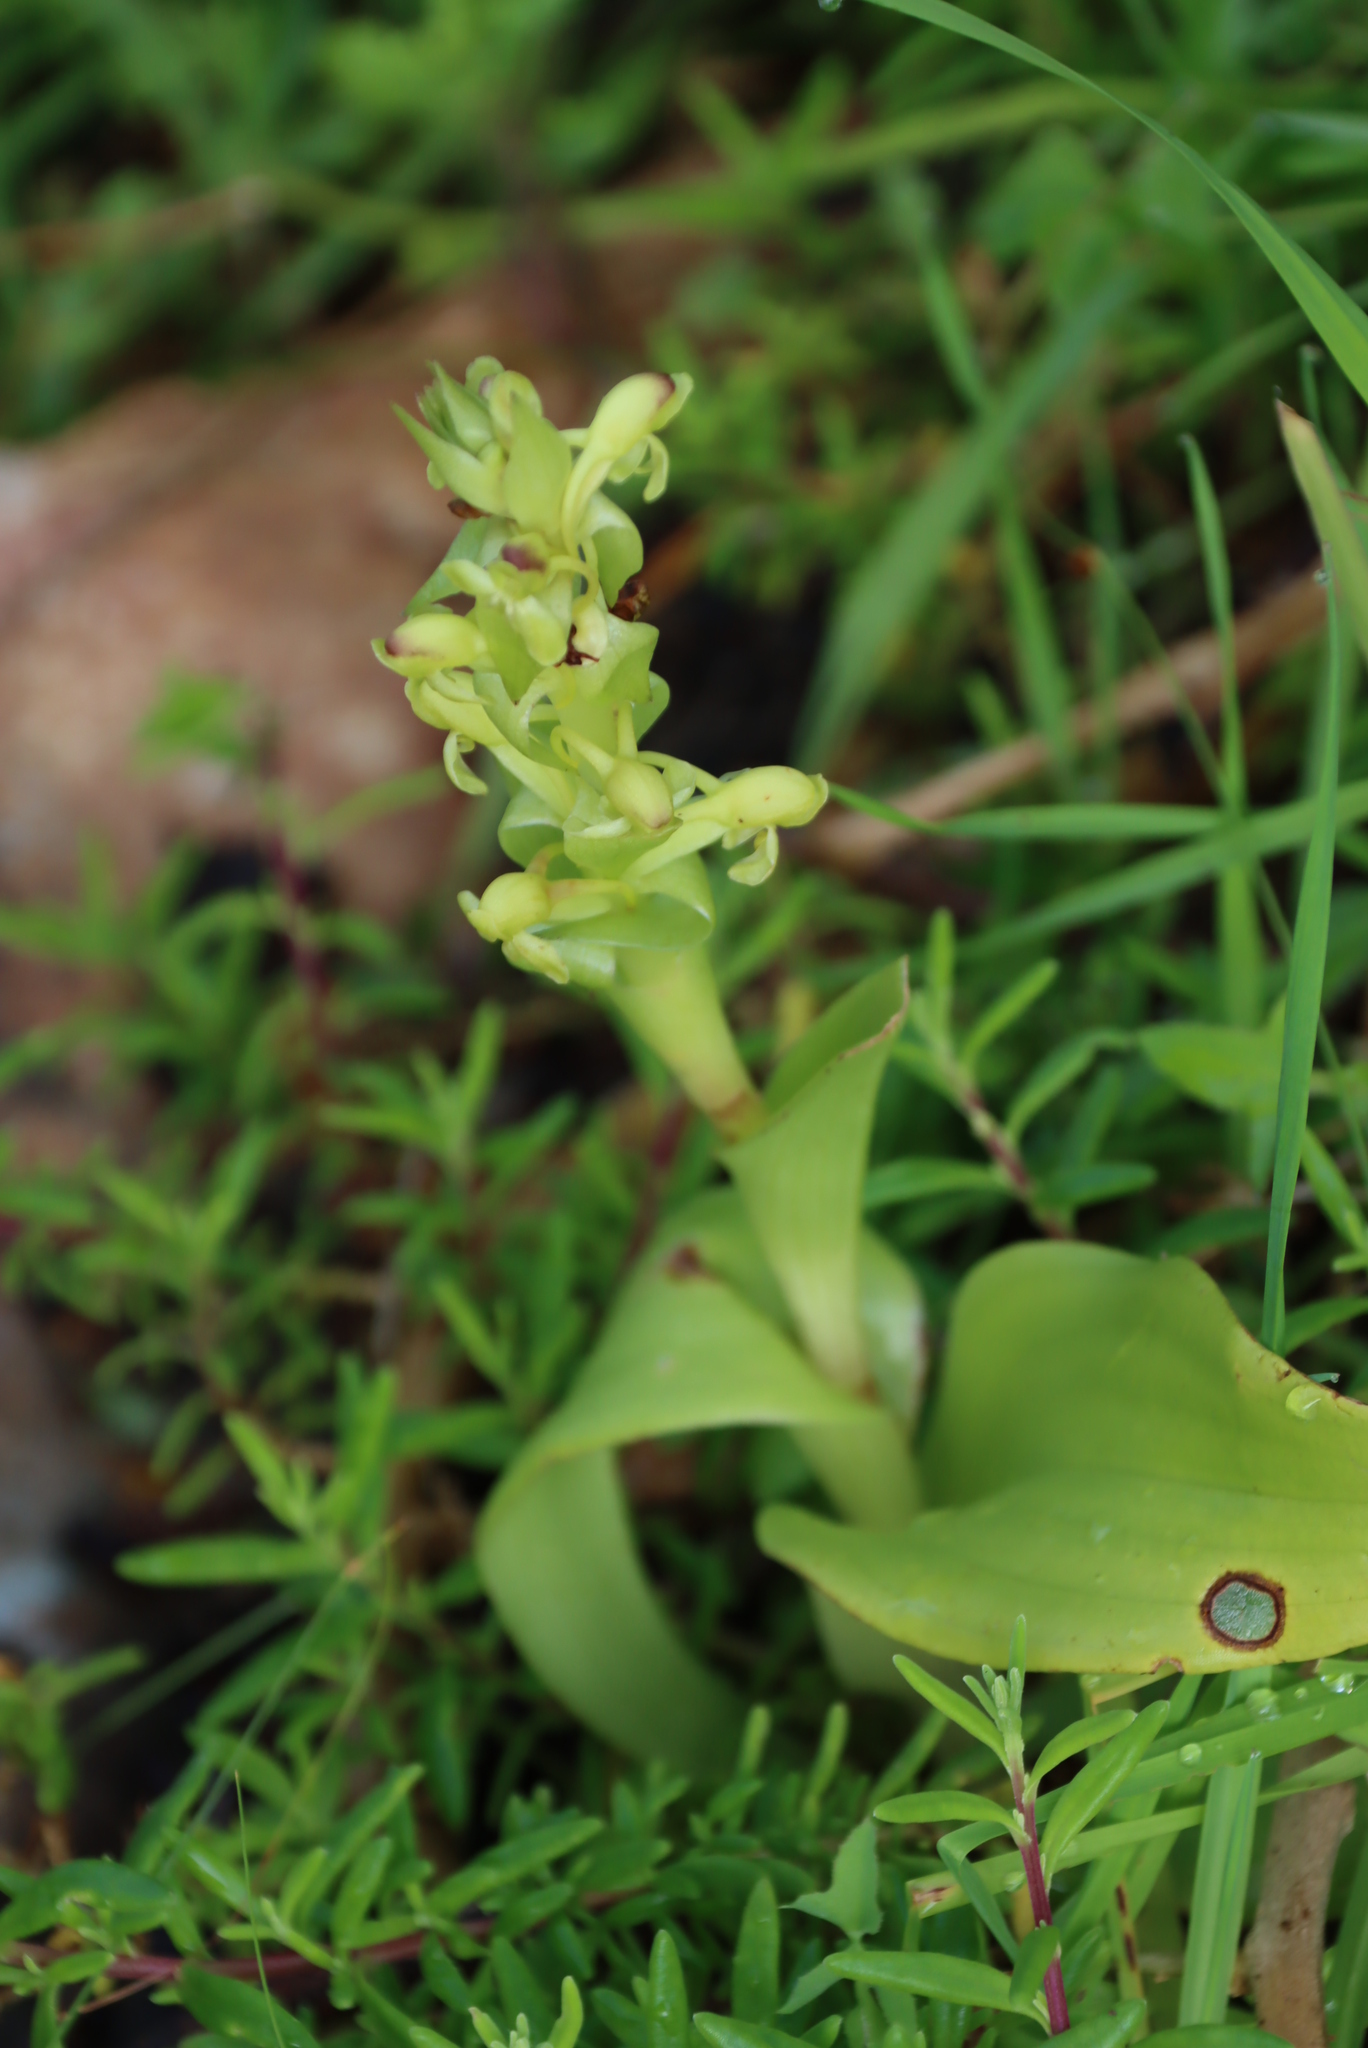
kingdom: Plantae
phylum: Tracheophyta
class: Liliopsida
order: Asparagales
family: Orchidaceae
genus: Satyrium
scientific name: Satyrium odorum
